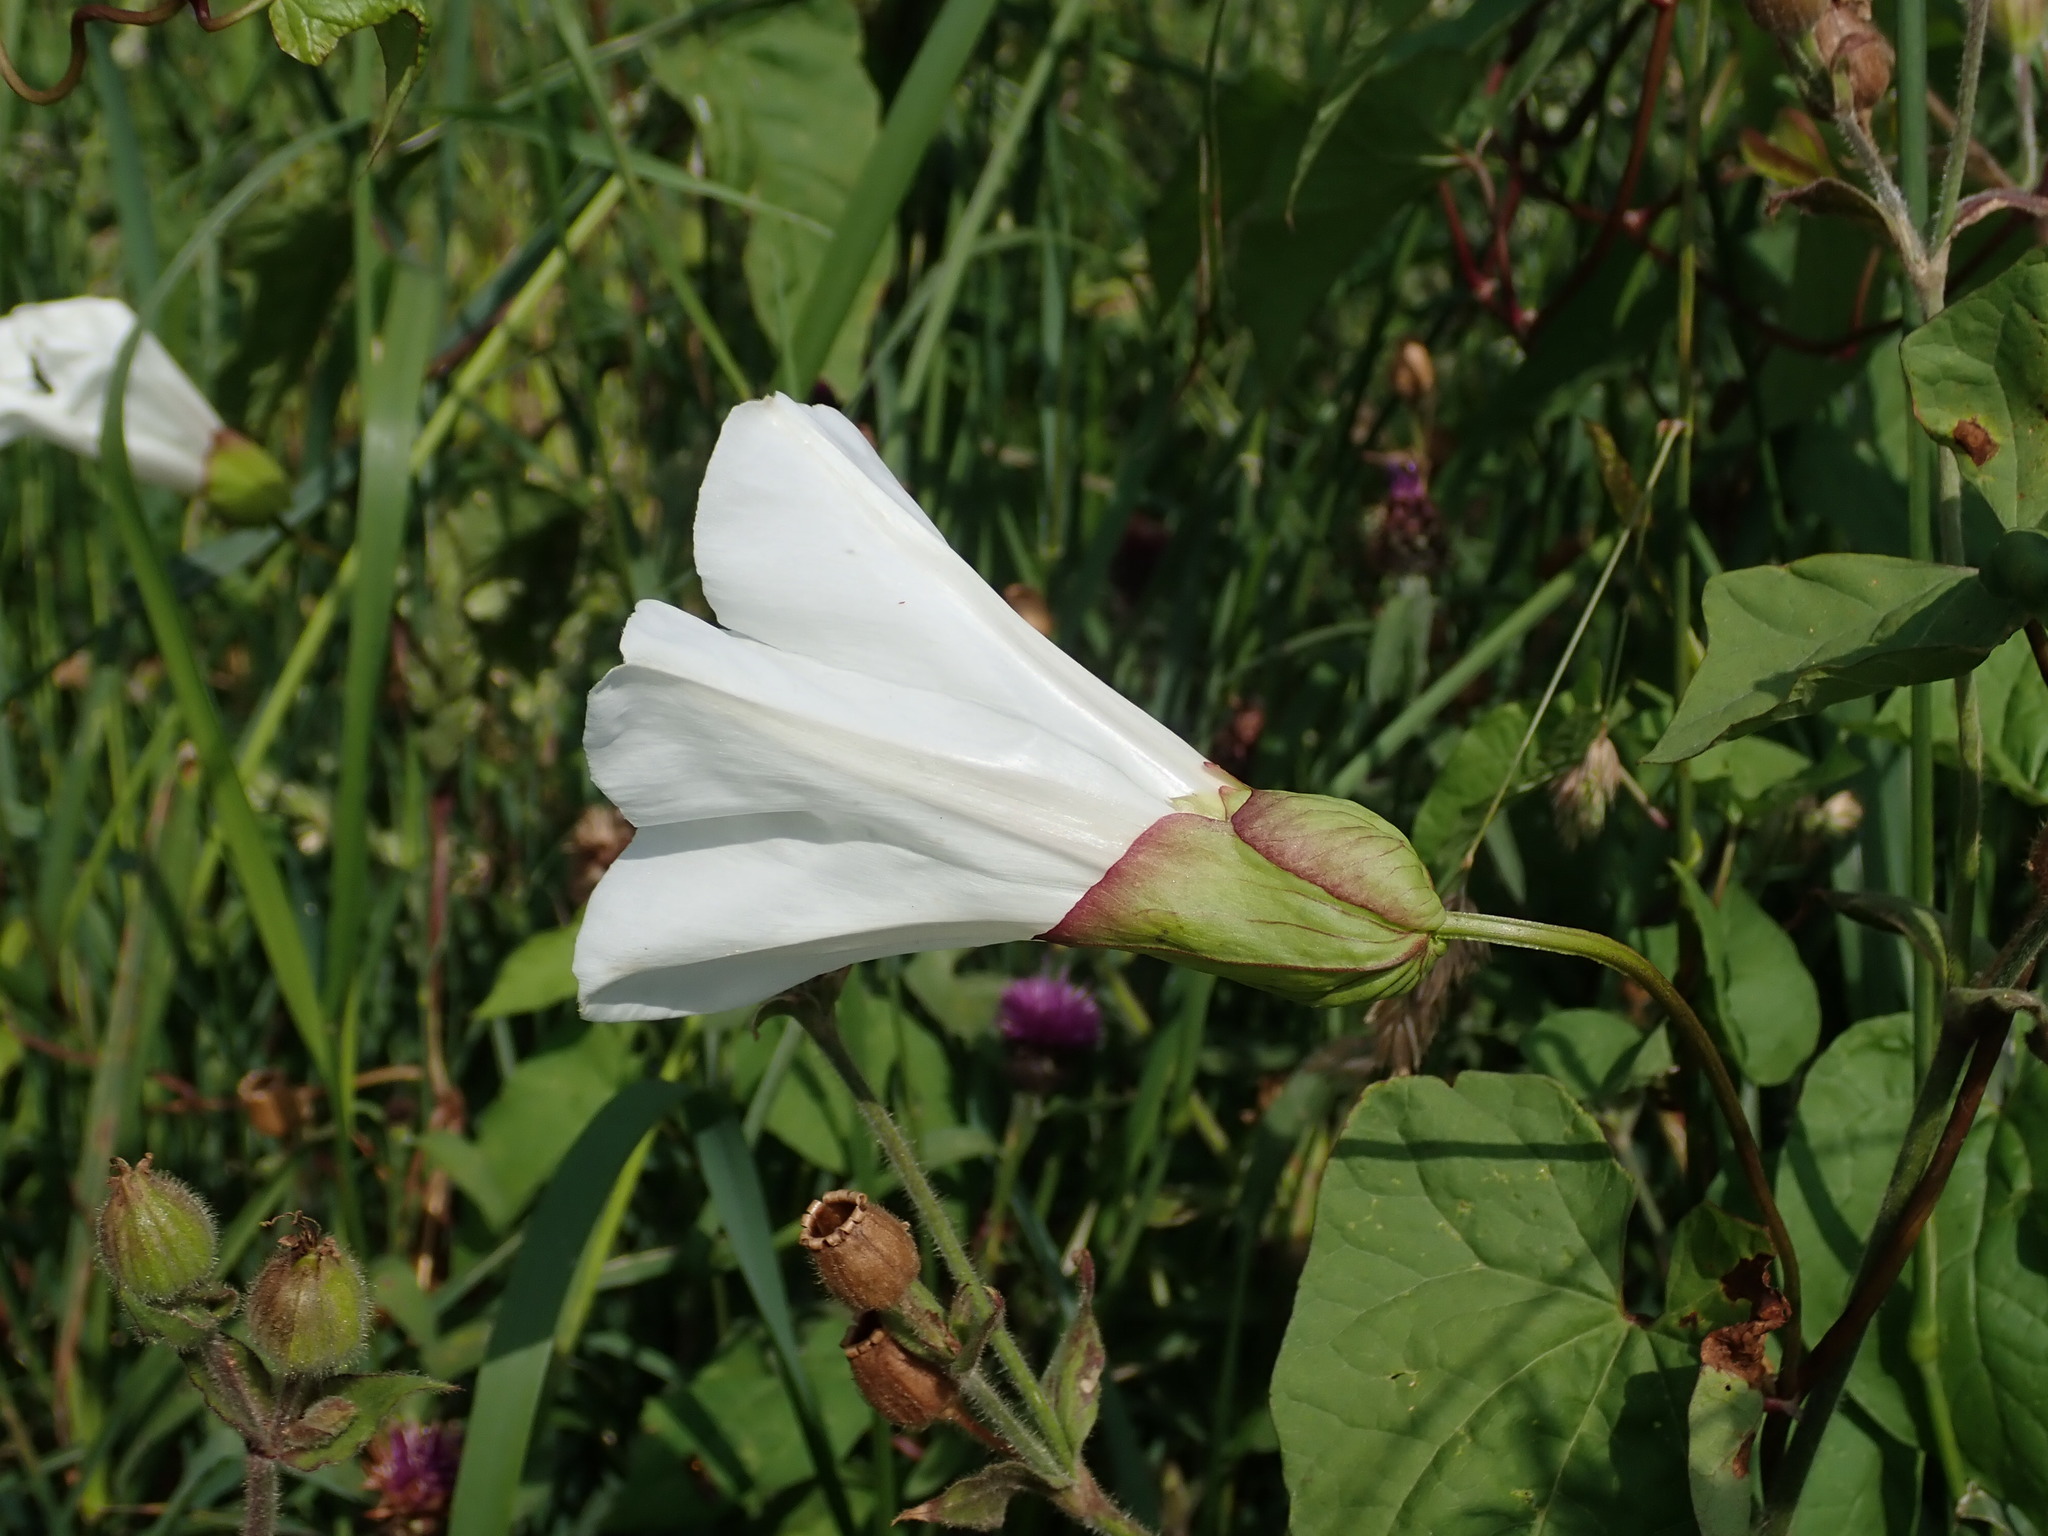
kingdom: Plantae
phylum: Tracheophyta
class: Magnoliopsida
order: Solanales
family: Convolvulaceae
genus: Calystegia
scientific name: Calystegia silvatica
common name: Large bindweed
